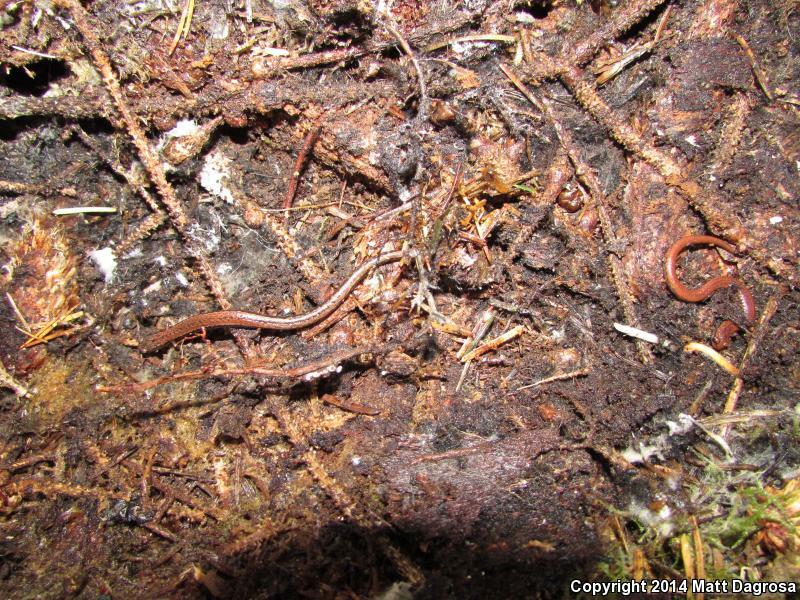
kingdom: Animalia
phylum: Chordata
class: Amphibia
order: Caudata
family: Plethodontidae
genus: Batrachoseps
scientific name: Batrachoseps attenuatus
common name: California slender salamander
